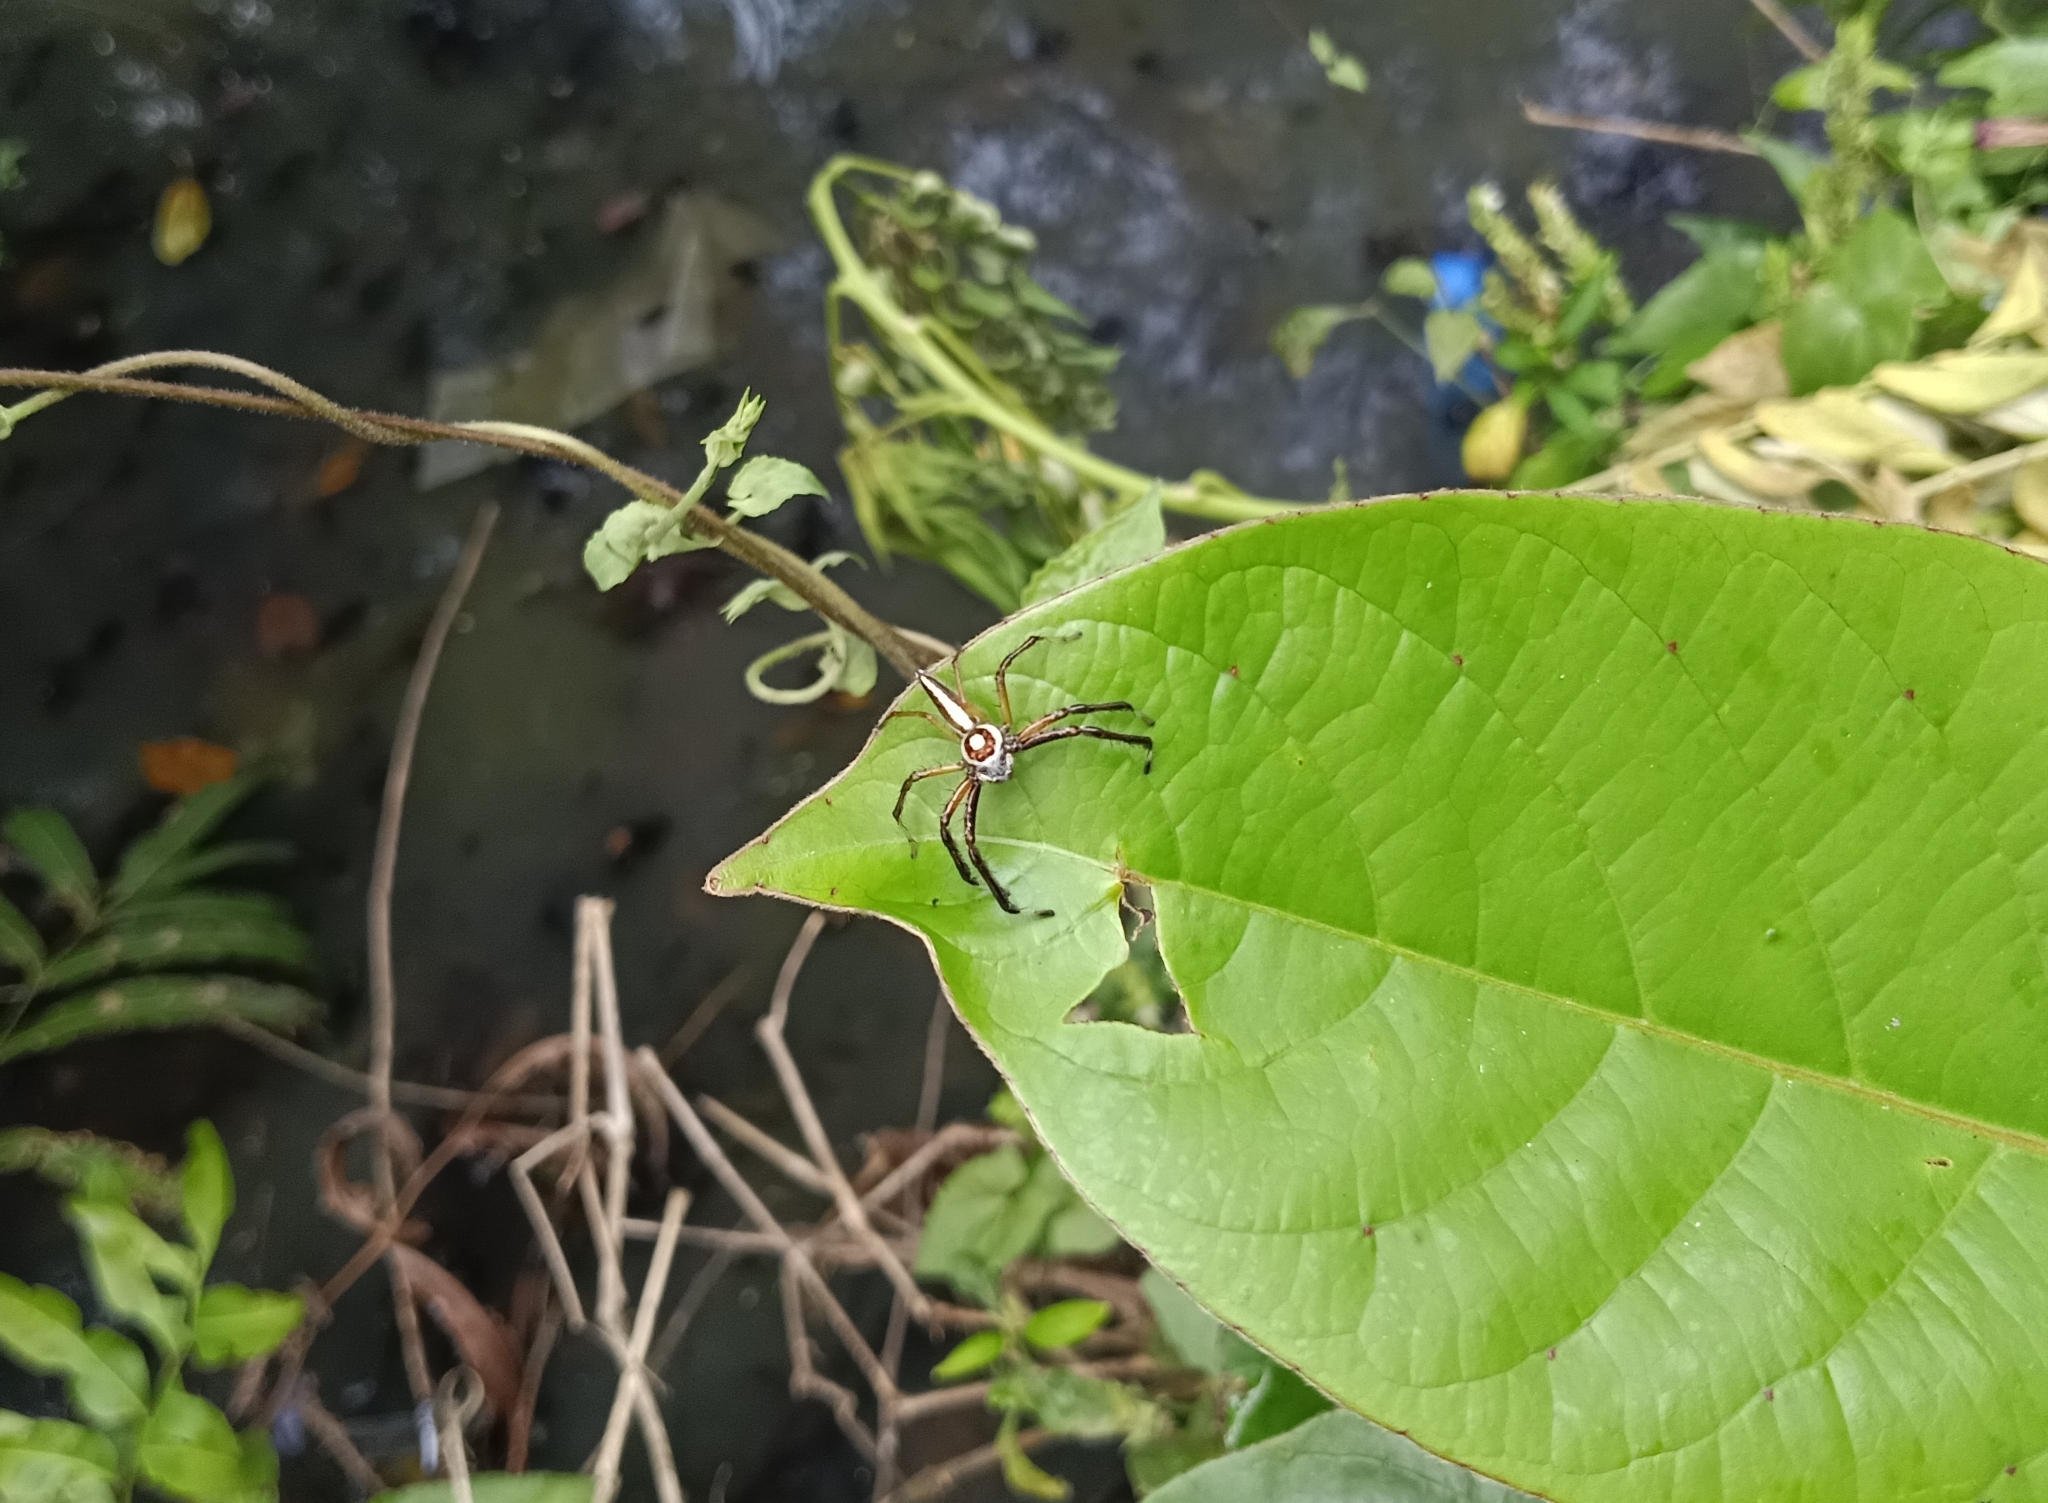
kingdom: Animalia
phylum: Arthropoda
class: Arachnida
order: Araneae
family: Salticidae
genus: Telamonia
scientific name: Telamonia dimidiata
